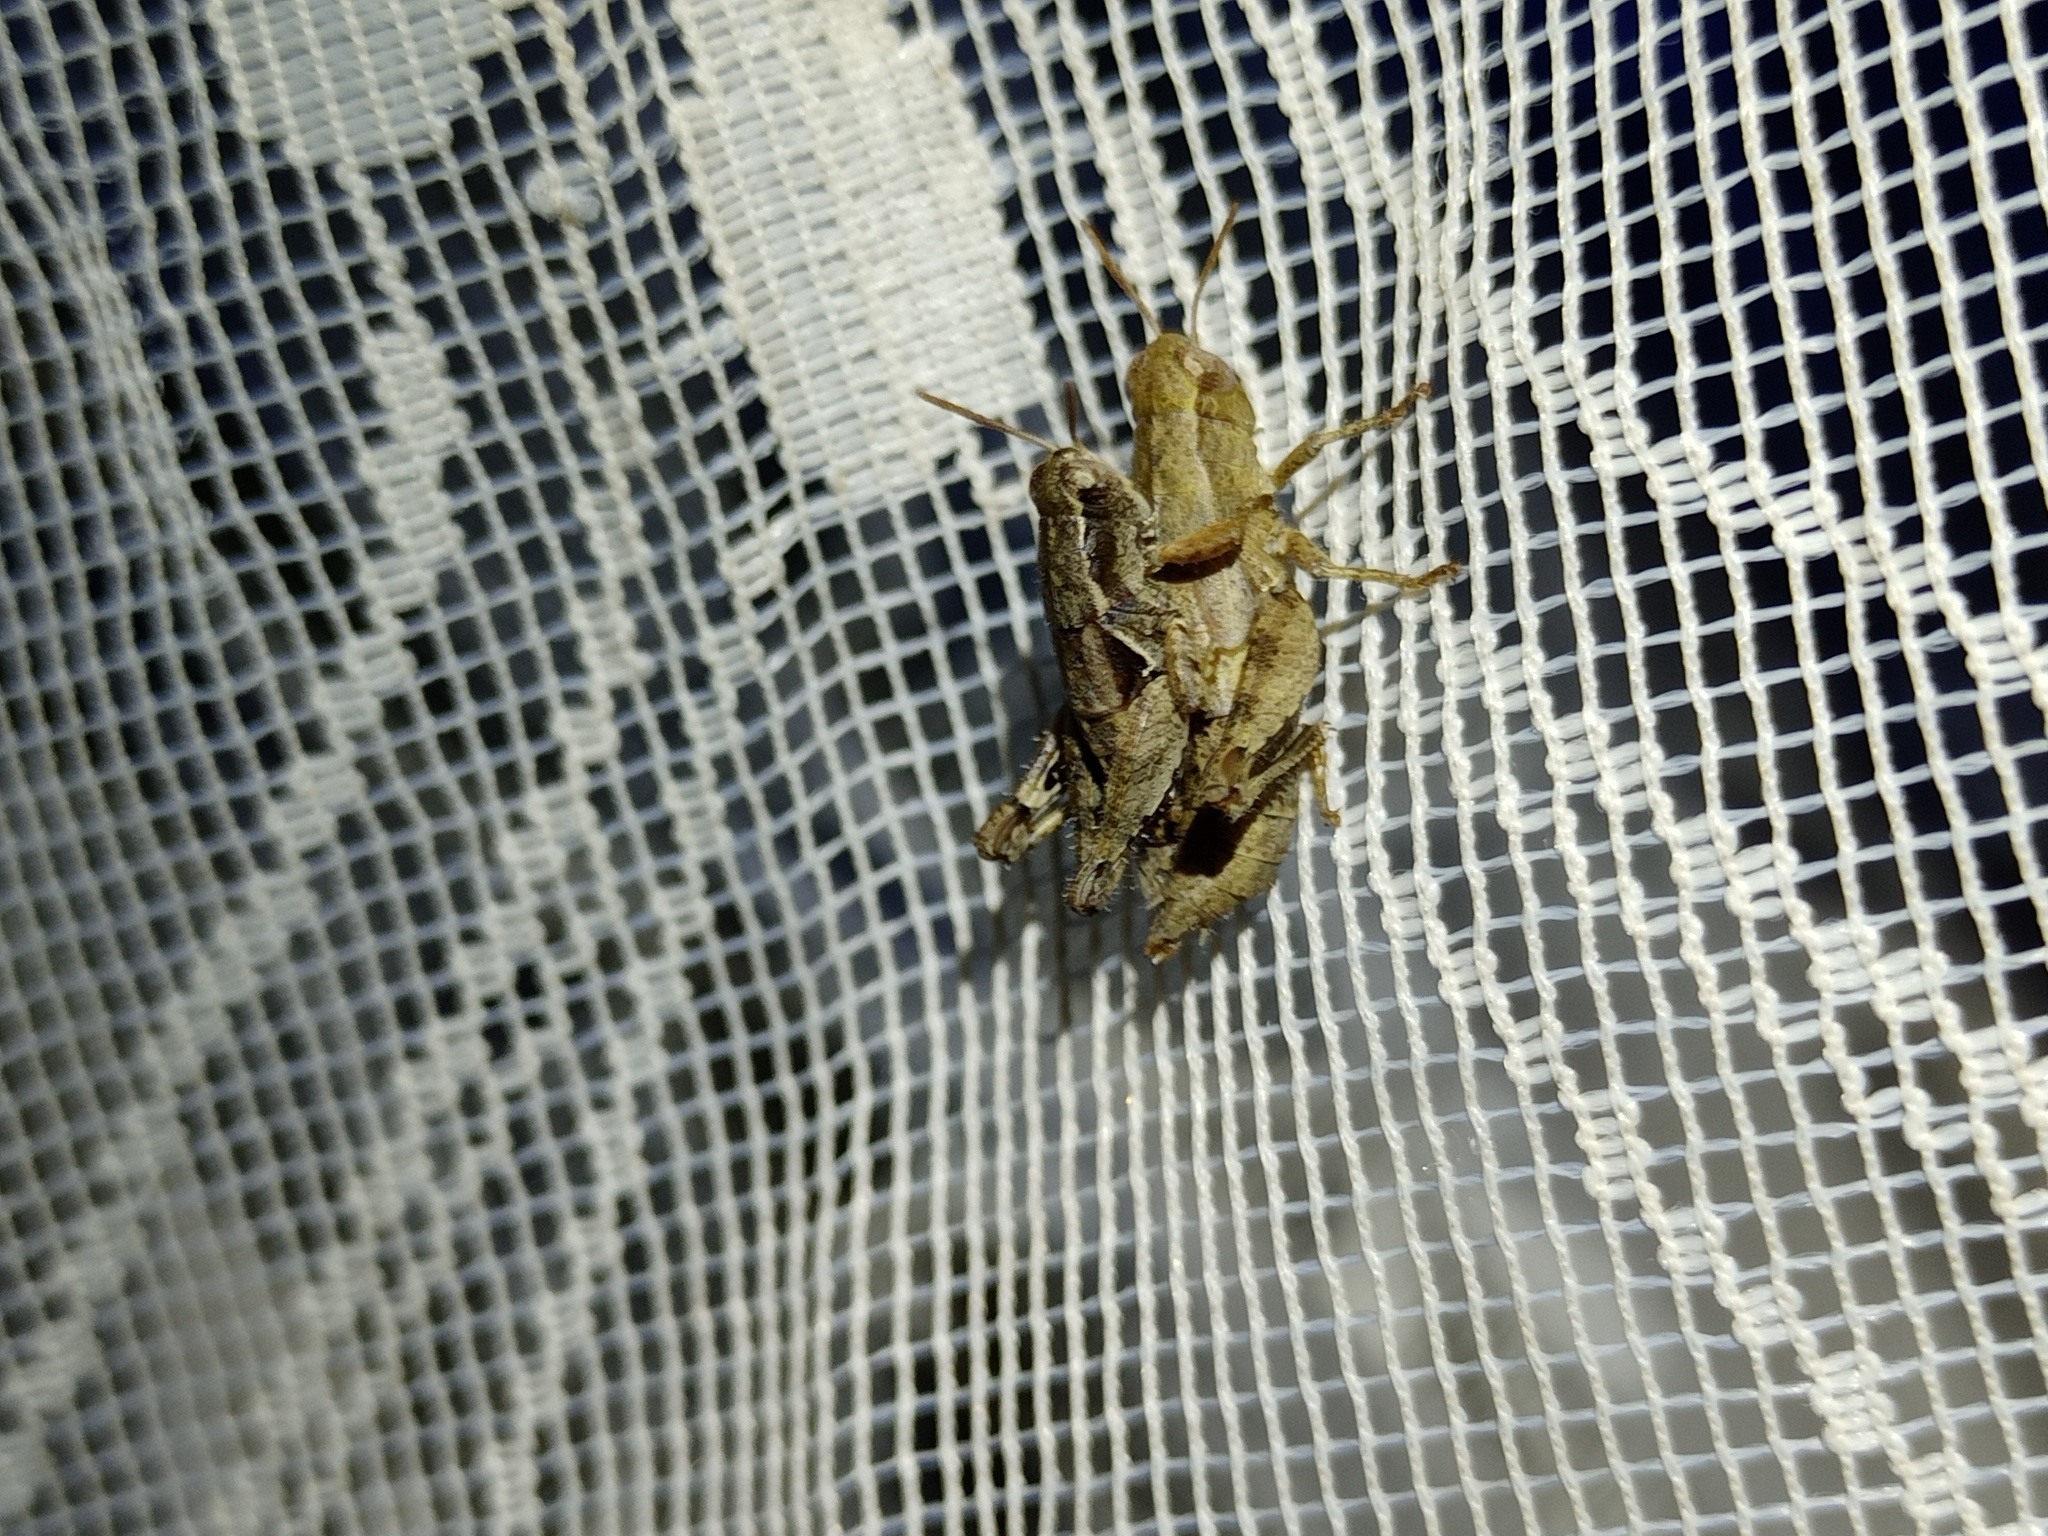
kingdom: Animalia
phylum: Arthropoda
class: Insecta
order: Orthoptera
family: Acrididae
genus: Pezotettix
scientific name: Pezotettix giornae
